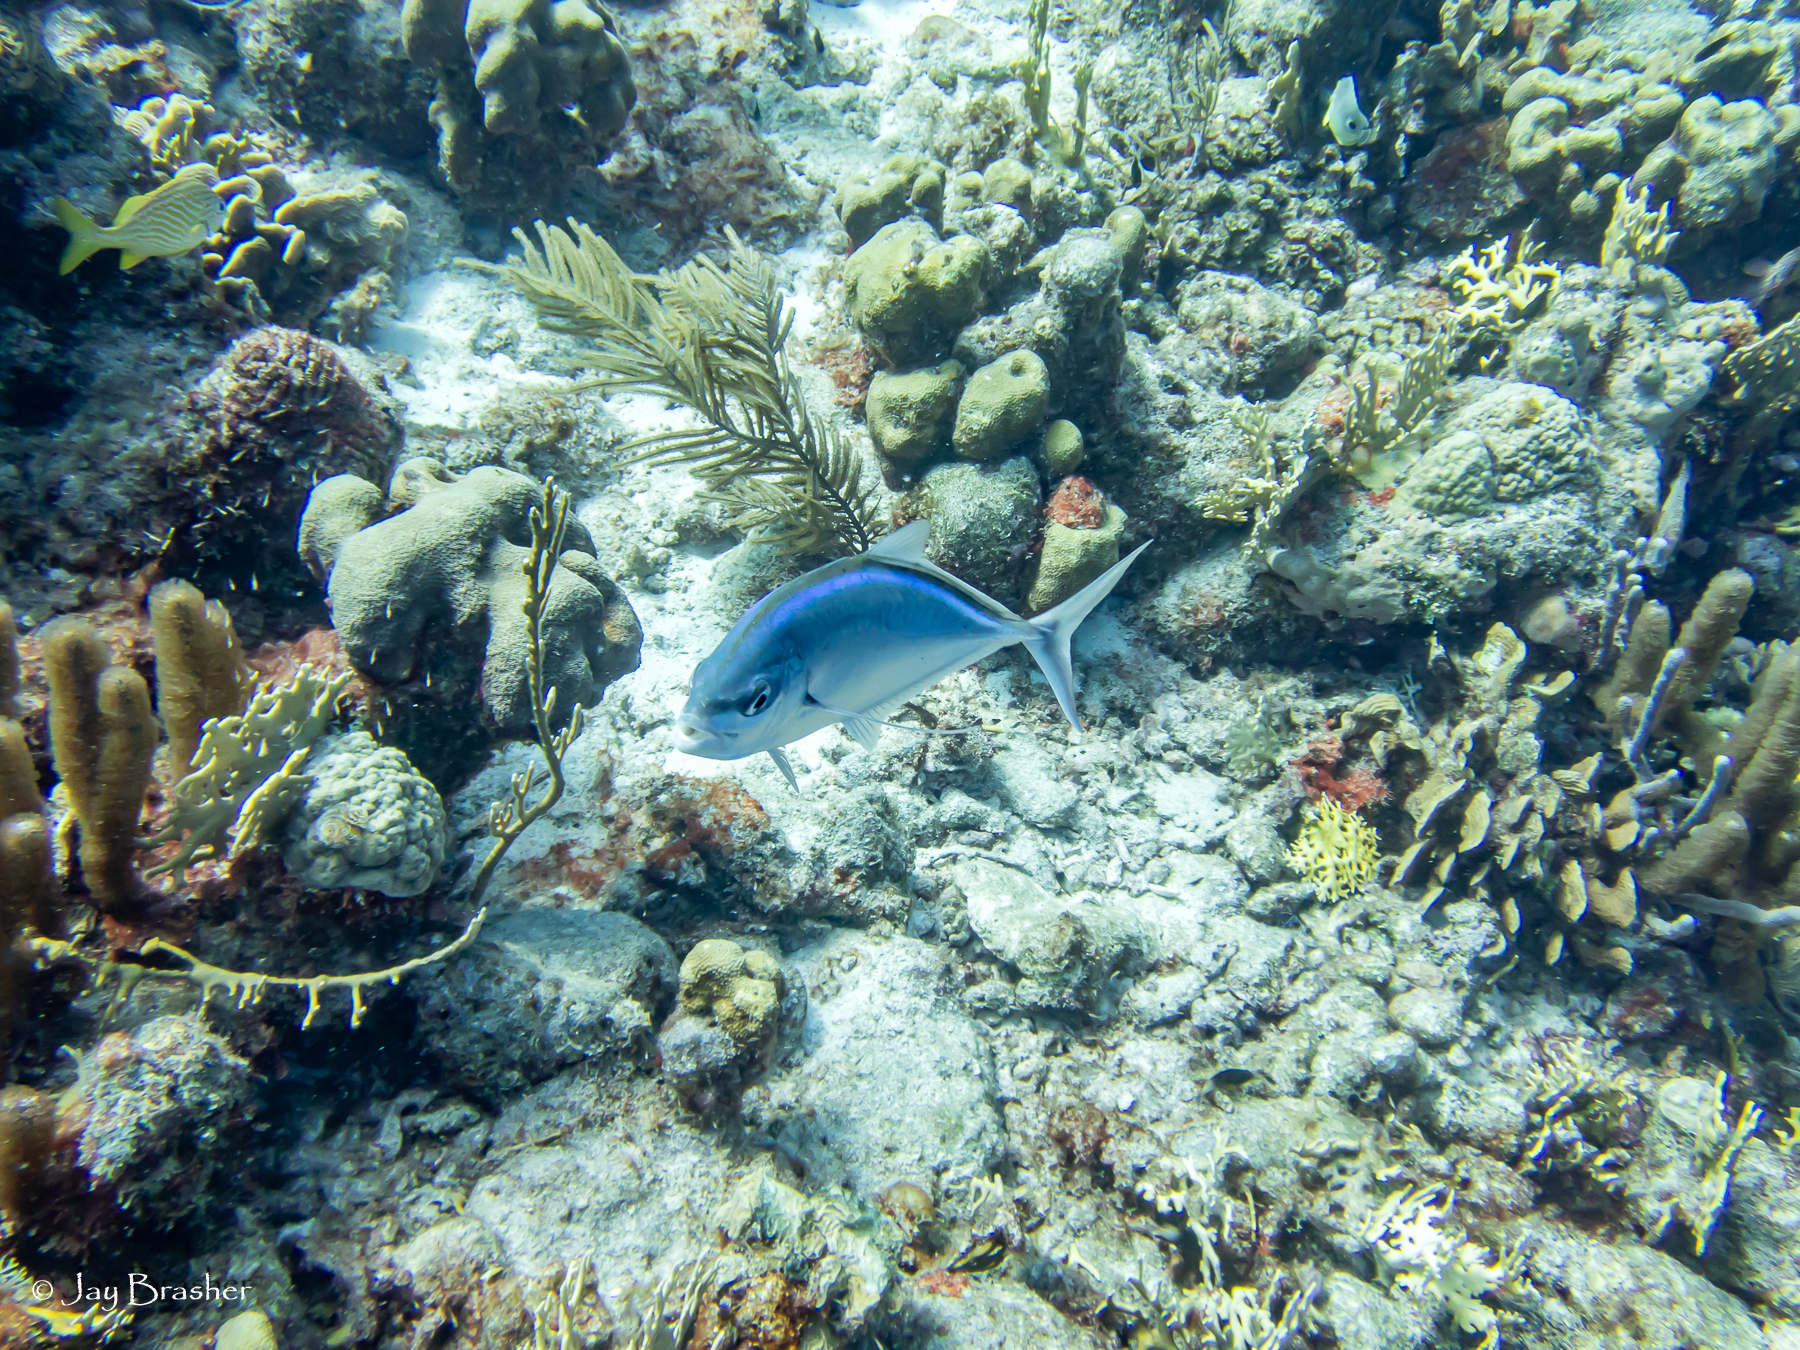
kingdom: Animalia
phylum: Chordata
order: Perciformes
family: Carangidae
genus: Caranx
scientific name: Caranx ruber
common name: Bar jack
